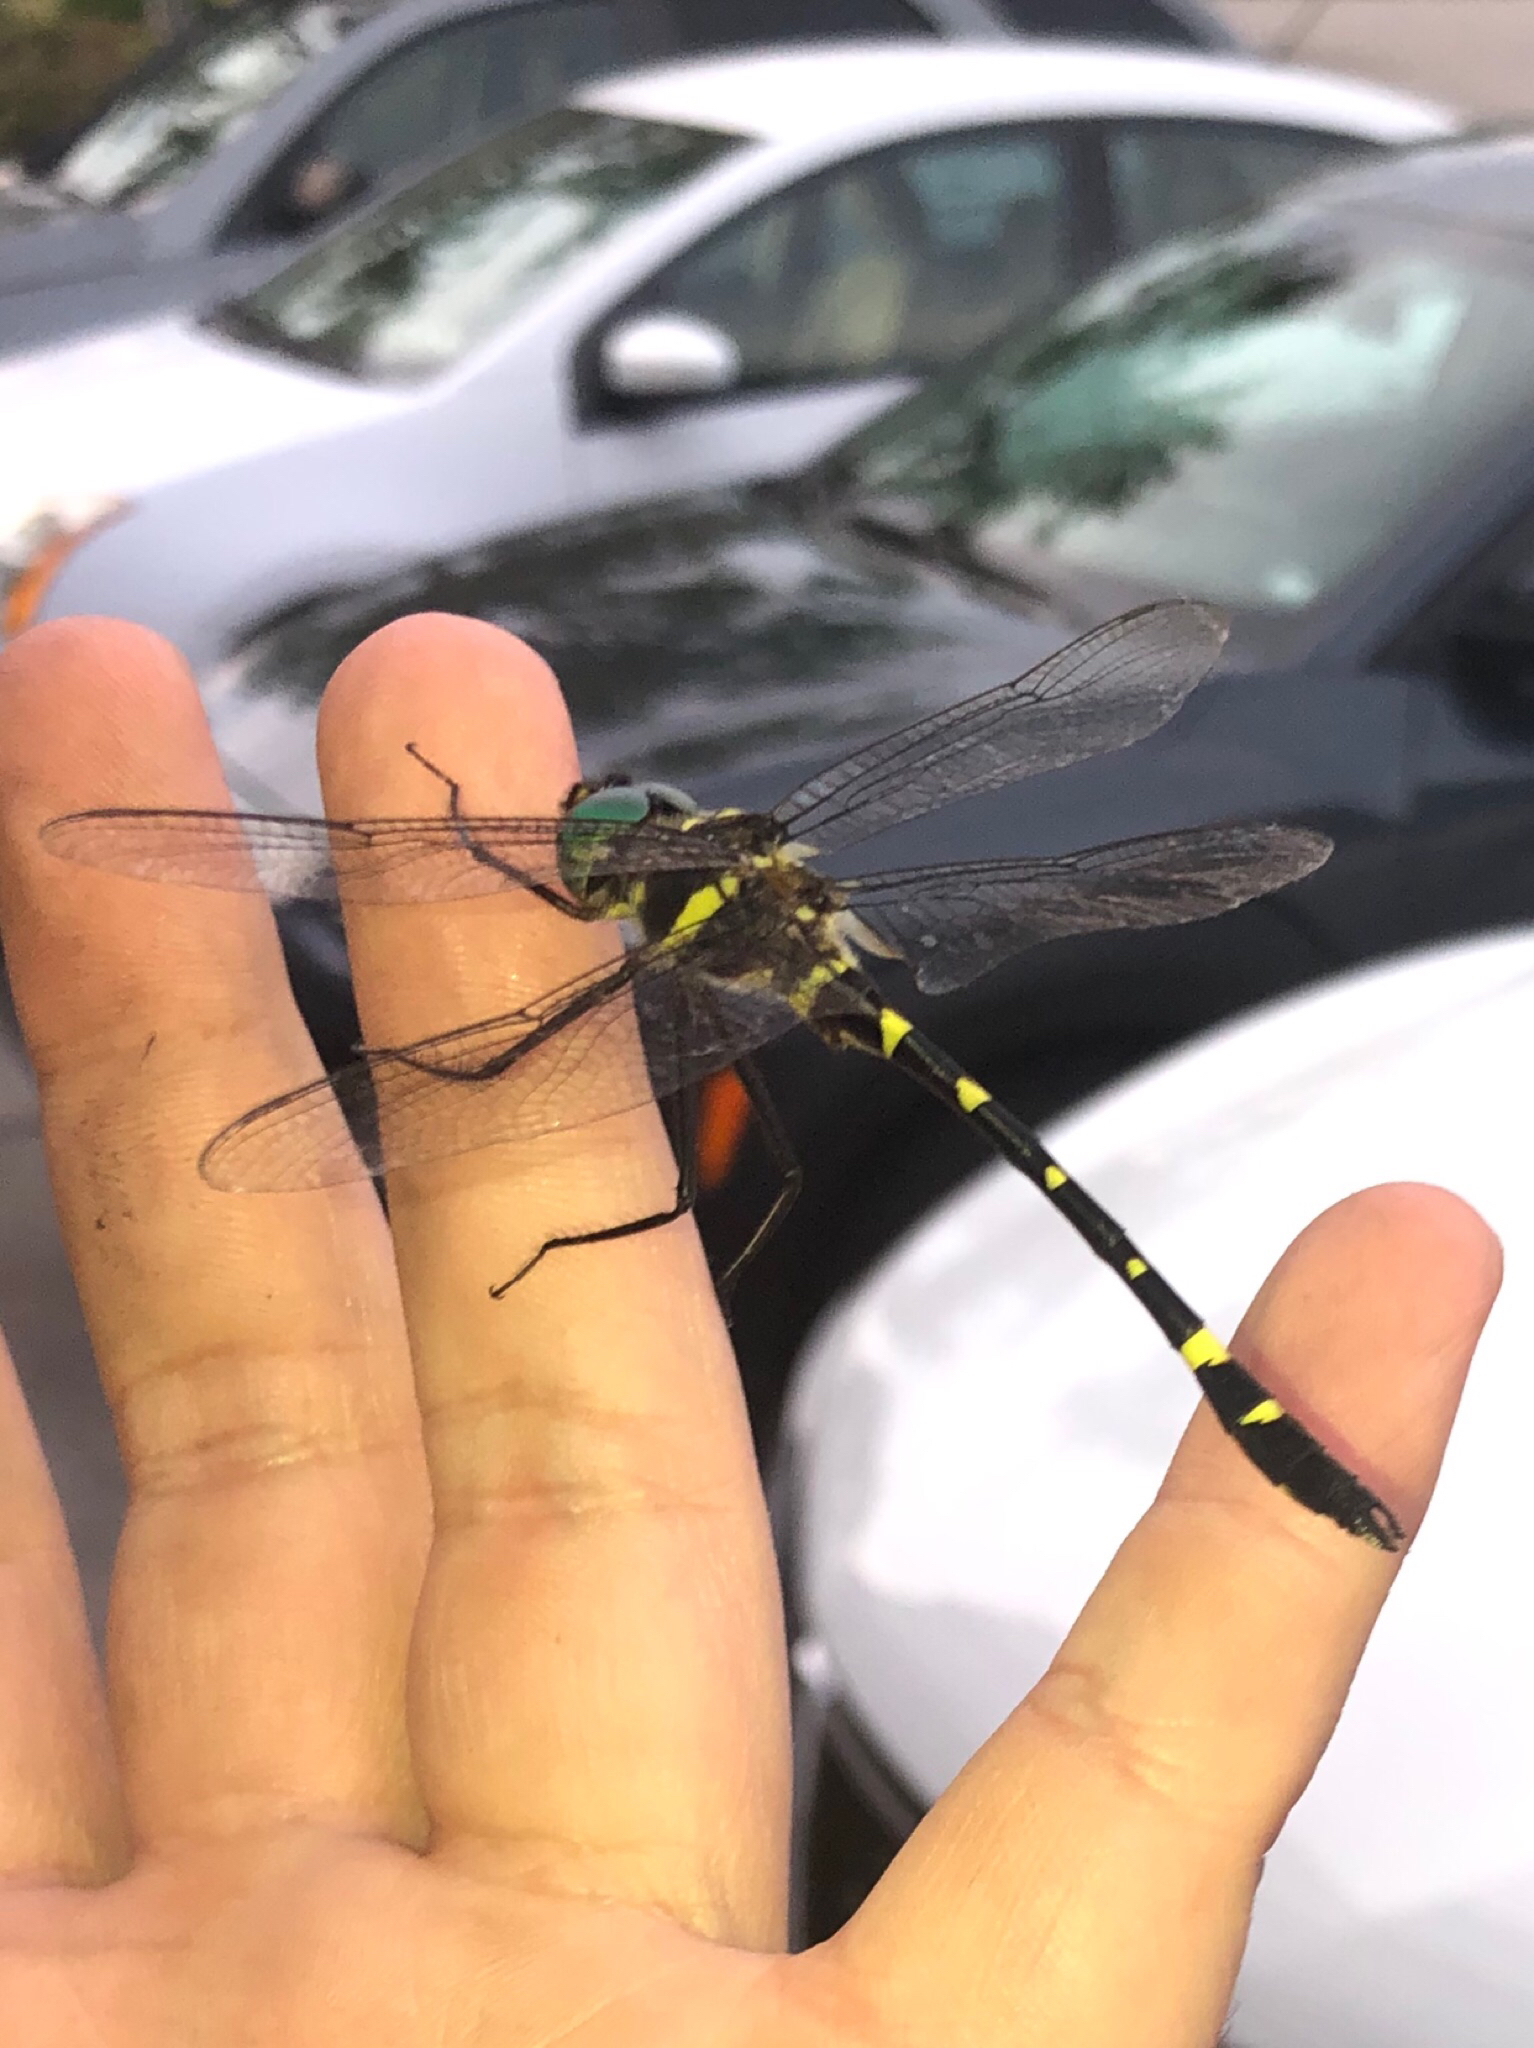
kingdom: Animalia
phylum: Arthropoda
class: Insecta
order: Odonata
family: Macromiidae
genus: Macromia
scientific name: Macromia illinoiensis
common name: Swift river cruiser
